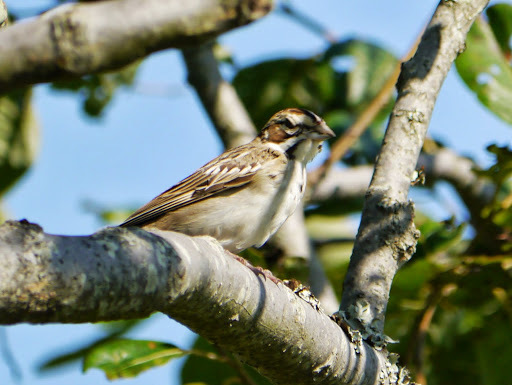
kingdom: Animalia
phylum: Chordata
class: Aves
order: Passeriformes
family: Passerellidae
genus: Chondestes
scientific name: Chondestes grammacus
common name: Lark sparrow
